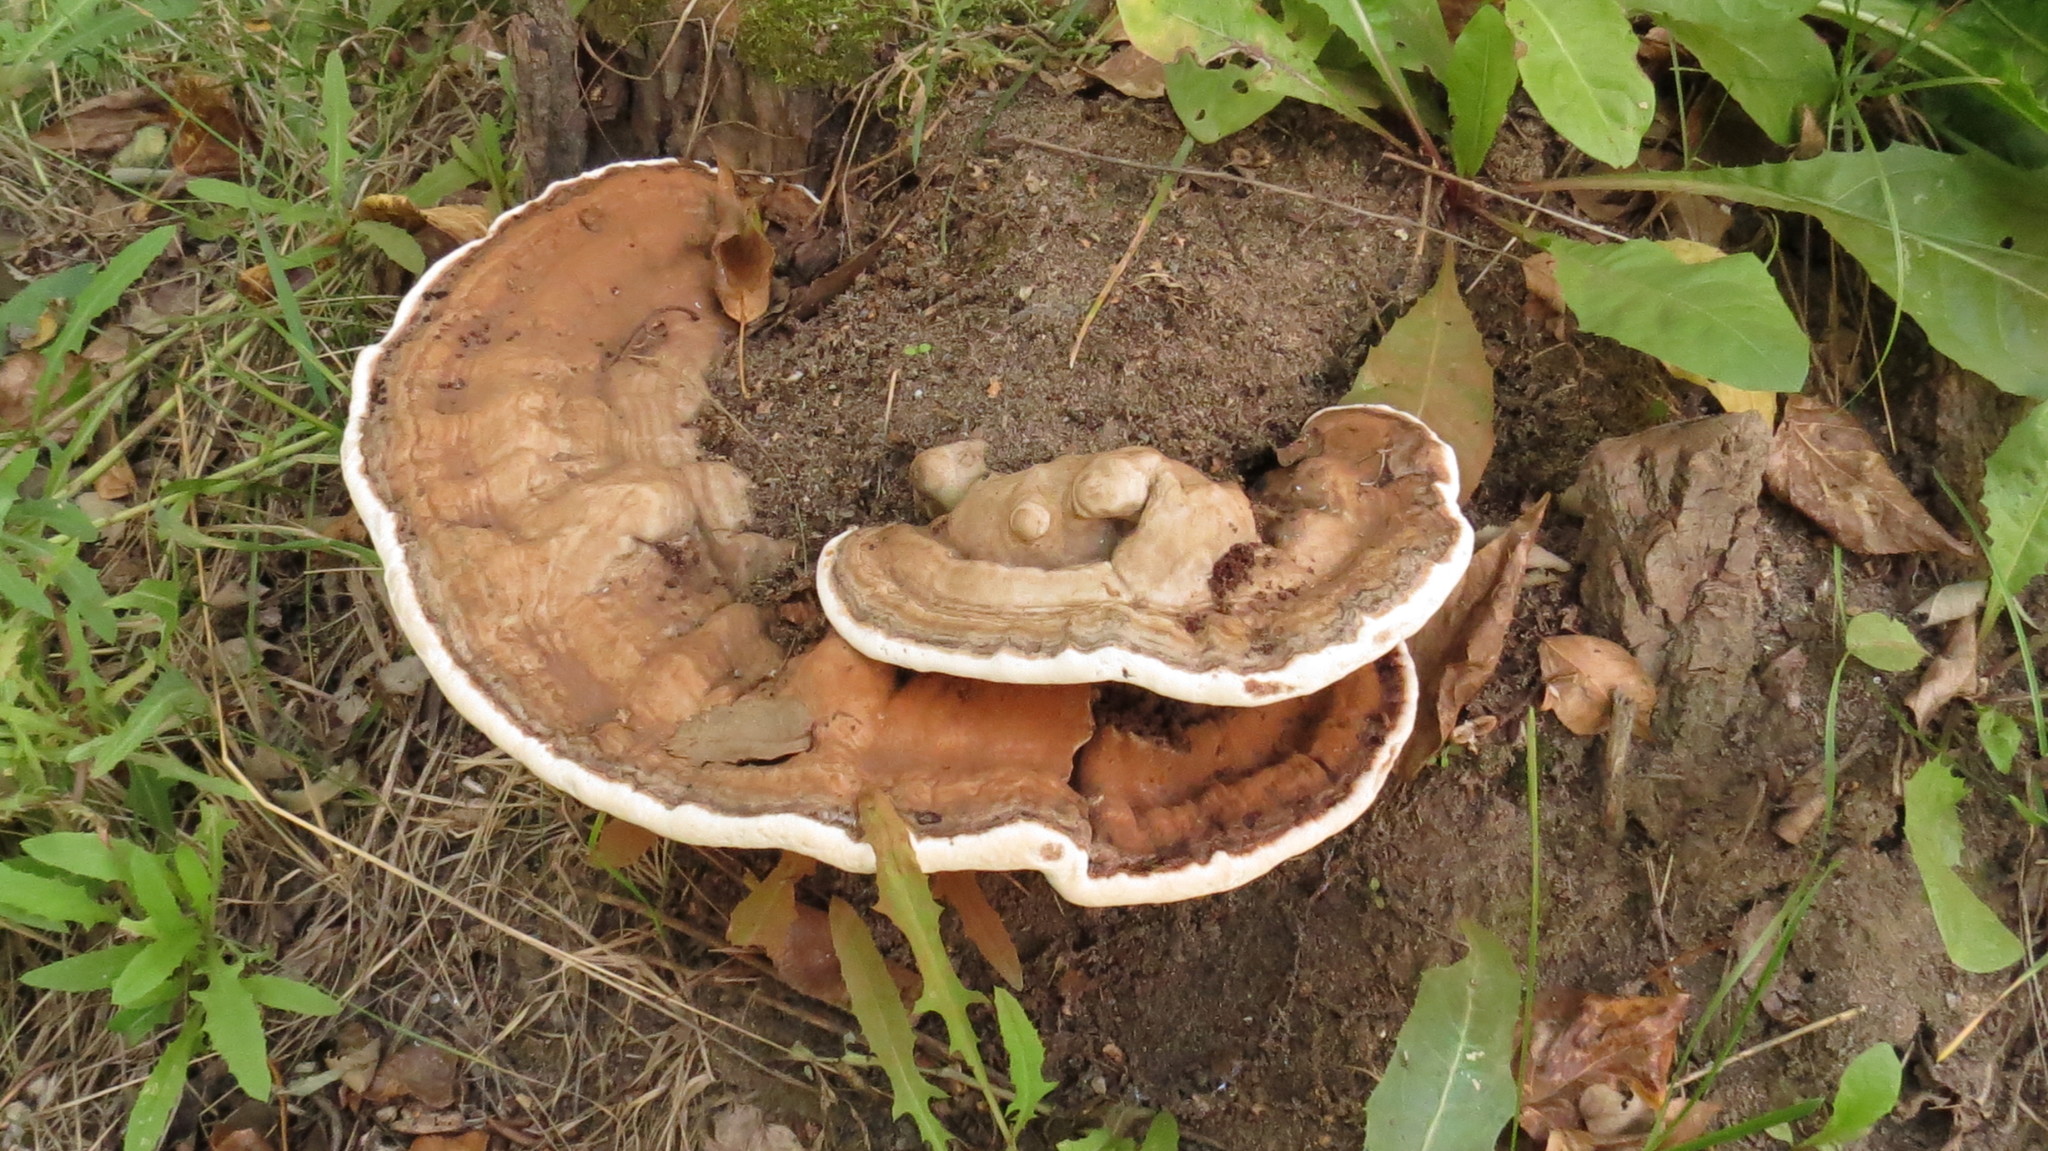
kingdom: Fungi
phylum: Basidiomycota
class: Agaricomycetes
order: Polyporales
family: Polyporaceae
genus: Ganoderma
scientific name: Ganoderma applanatum
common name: Artist's bracket
